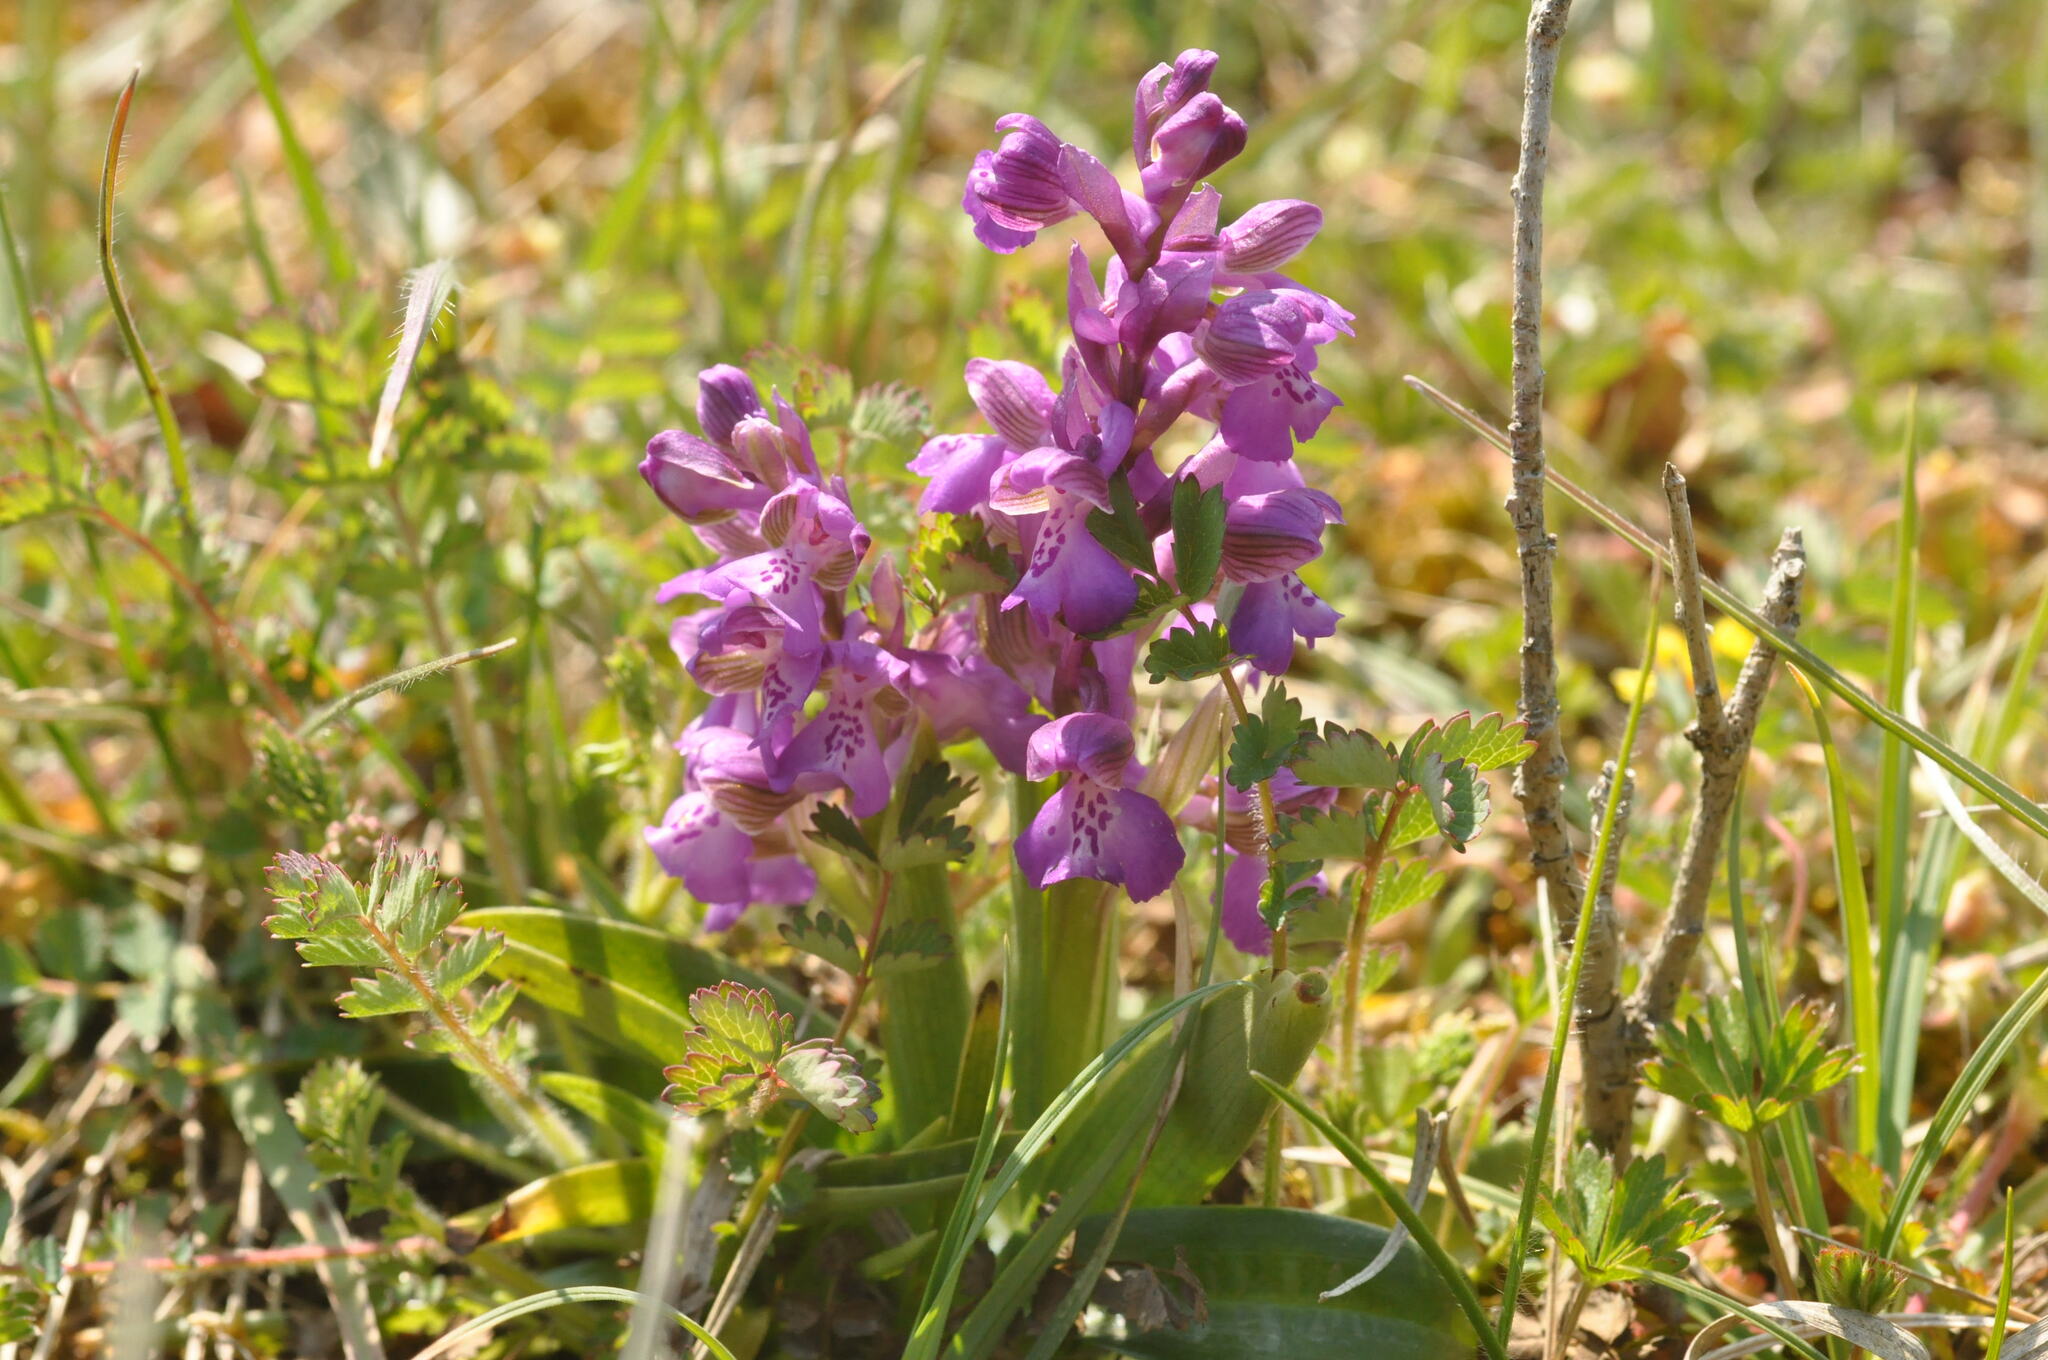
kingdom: Plantae
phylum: Tracheophyta
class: Liliopsida
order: Asparagales
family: Orchidaceae
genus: Anacamptis
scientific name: Anacamptis morio
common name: Green-winged orchid
